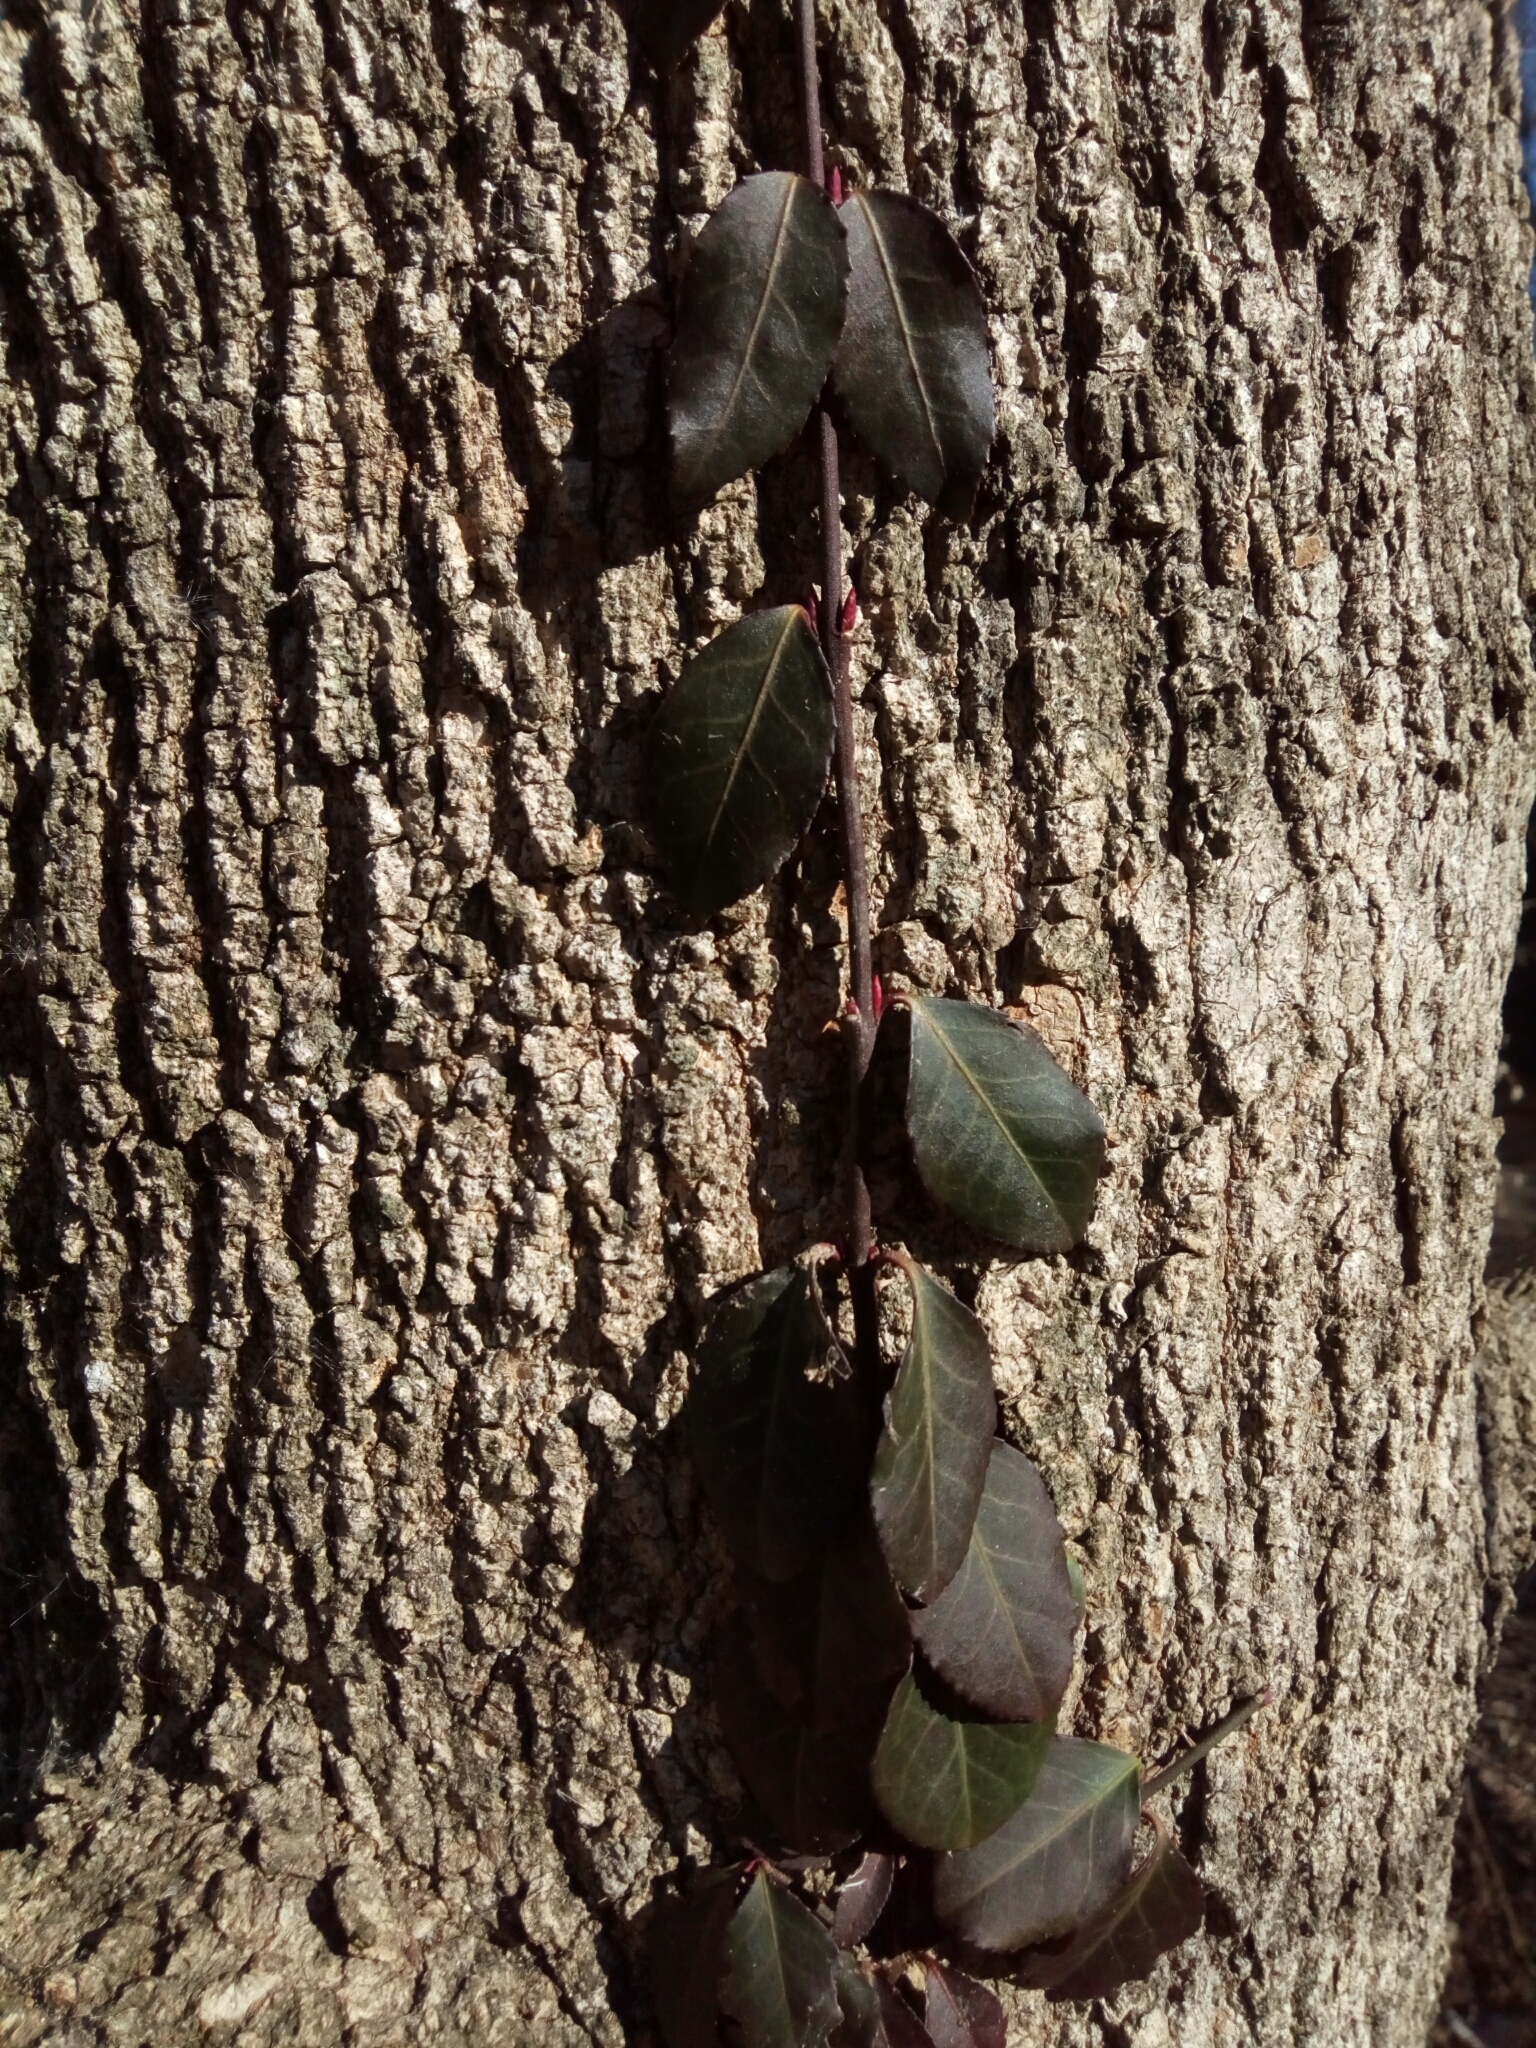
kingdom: Plantae
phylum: Tracheophyta
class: Magnoliopsida
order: Celastrales
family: Celastraceae
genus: Euonymus
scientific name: Euonymus fortunei
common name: Climbing euonymus
